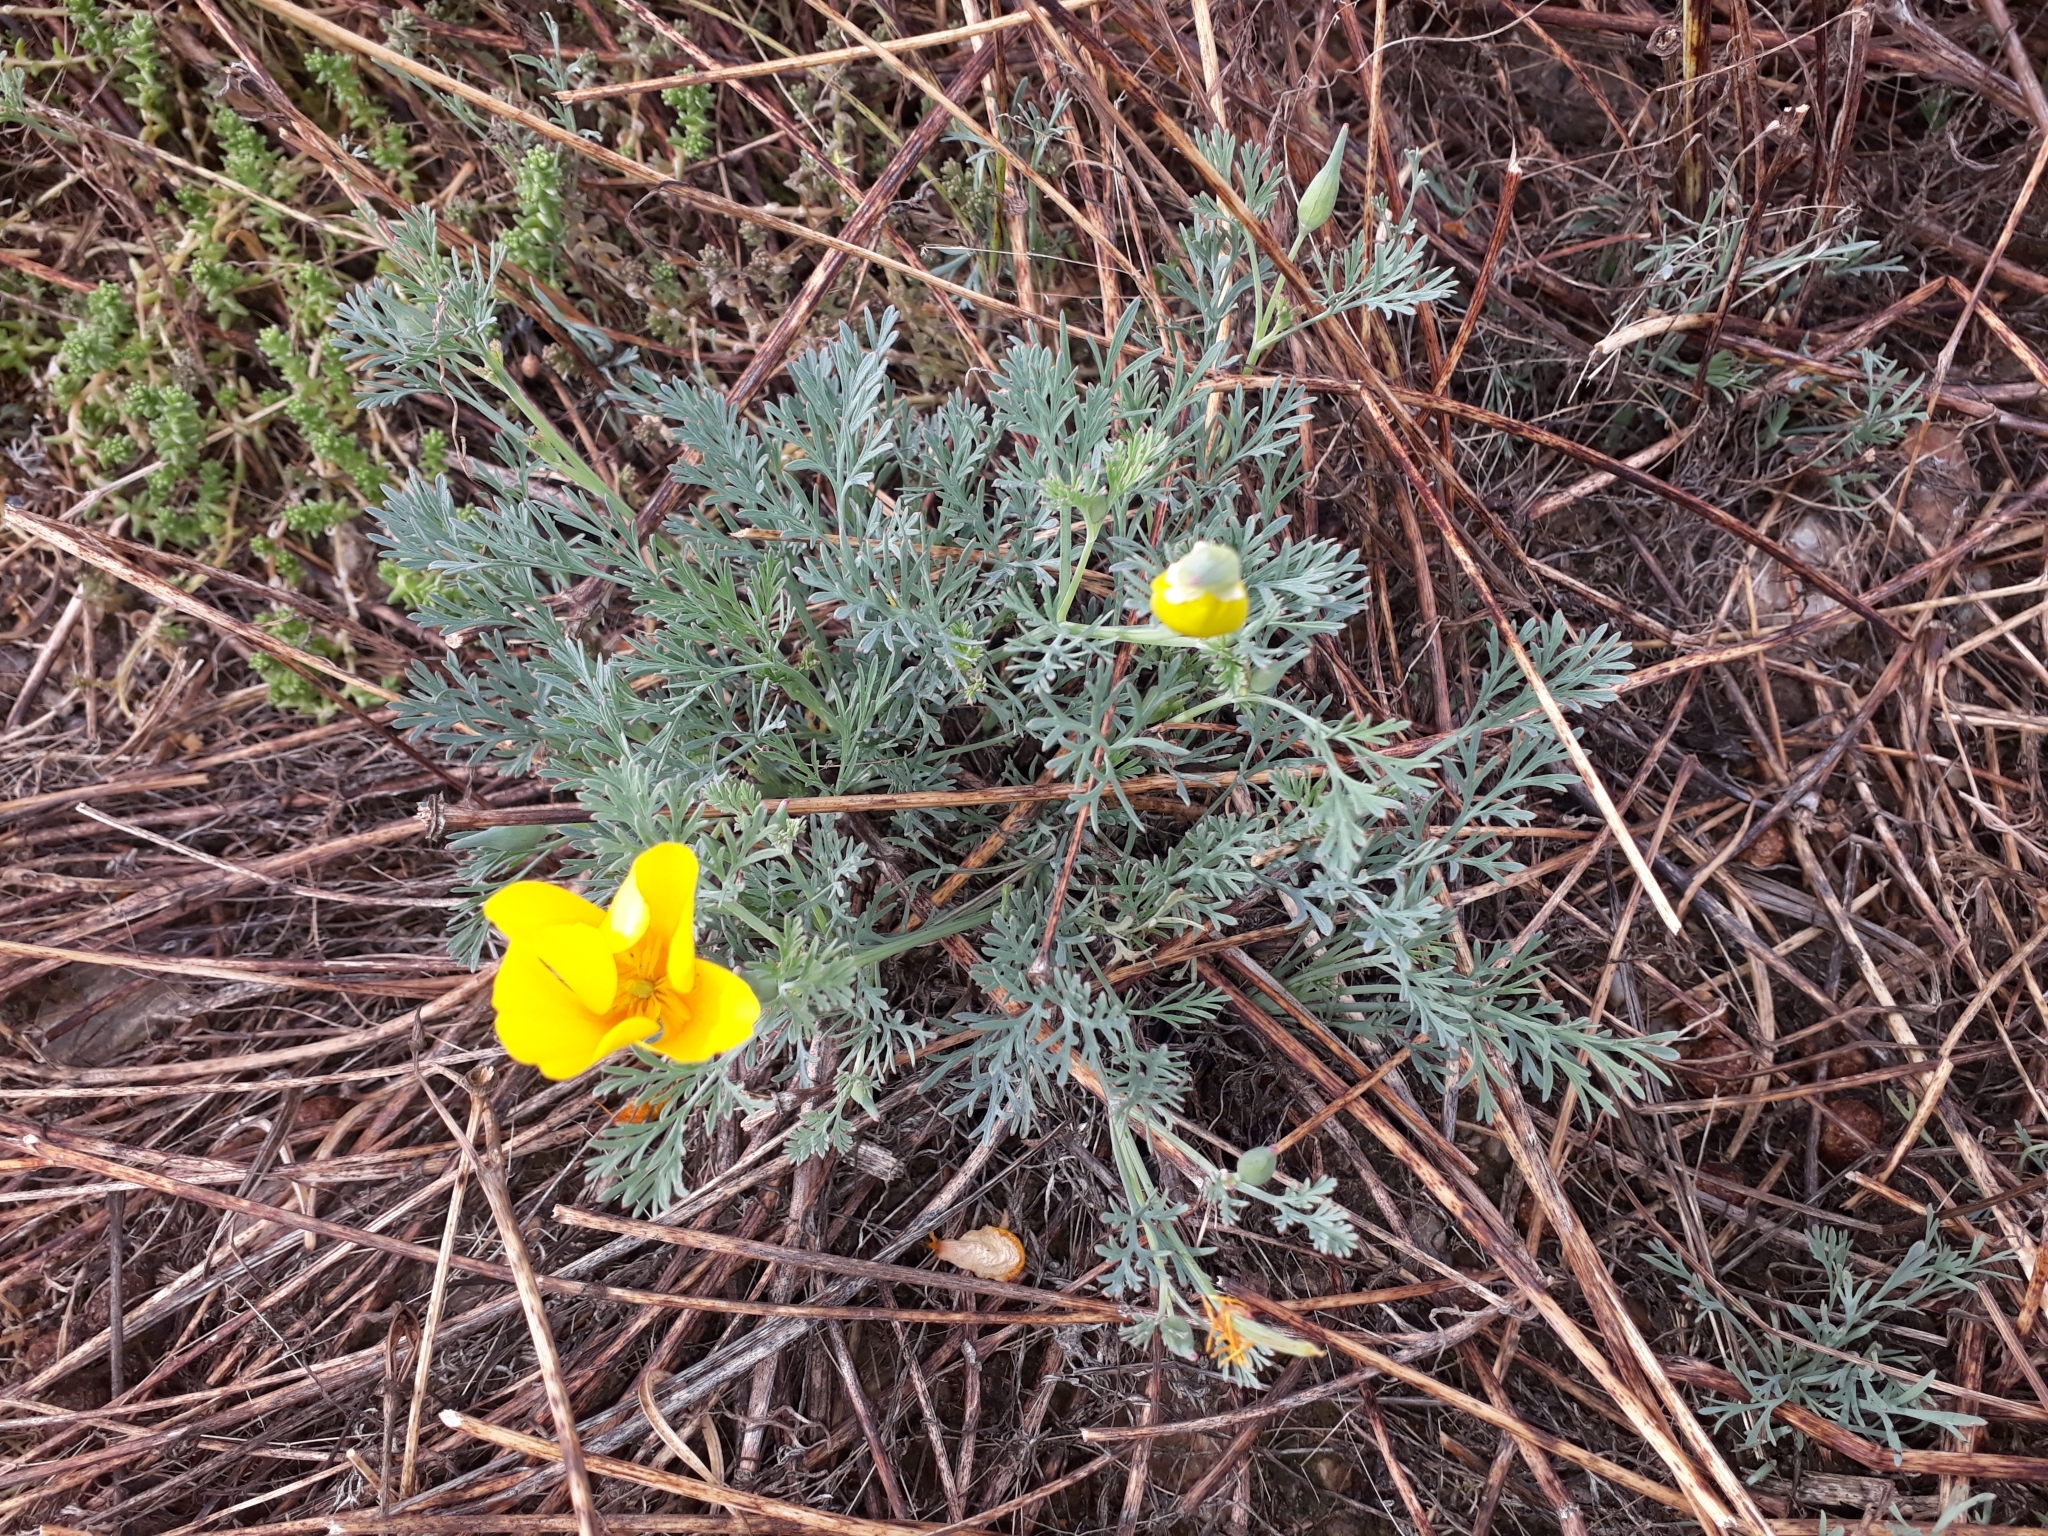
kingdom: Plantae
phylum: Tracheophyta
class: Magnoliopsida
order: Ranunculales
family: Papaveraceae
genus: Eschscholzia
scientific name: Eschscholzia californica
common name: California poppy
